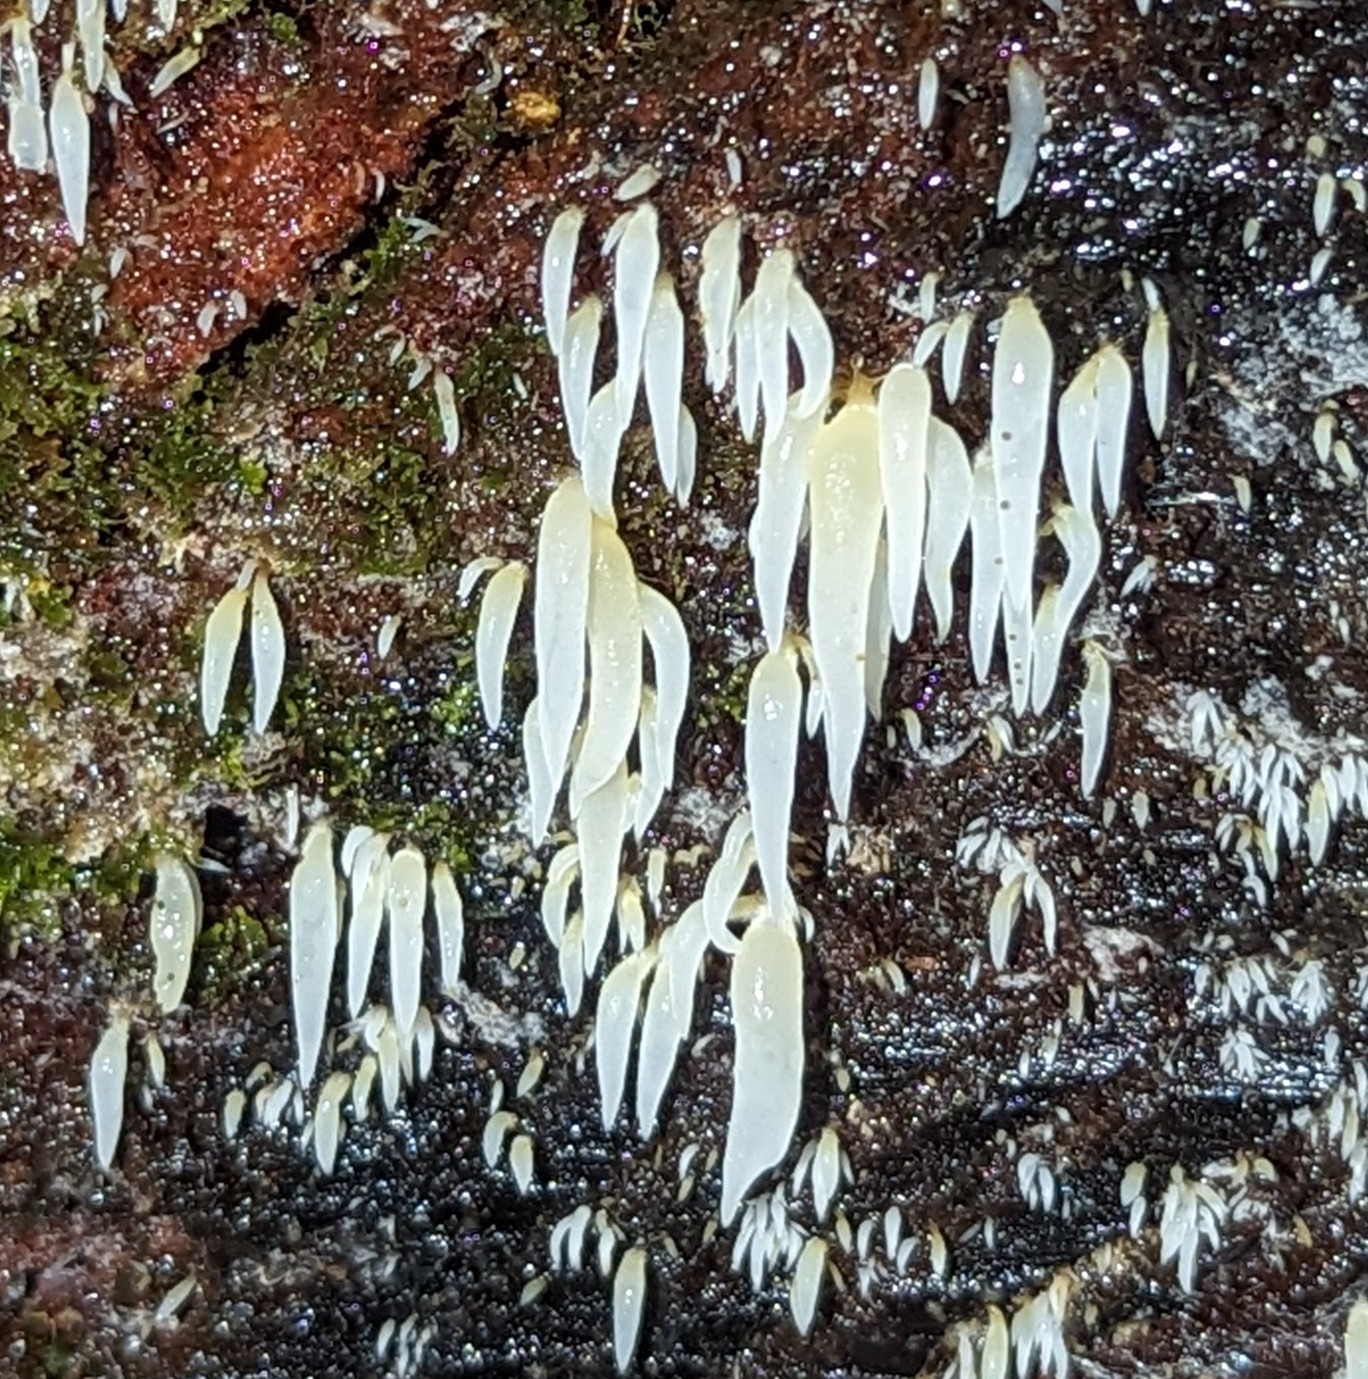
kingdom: Fungi
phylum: Basidiomycota
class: Agaricomycetes
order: Agaricales
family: Clavariaceae
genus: Mucronella
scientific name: Mucronella fusiformis
